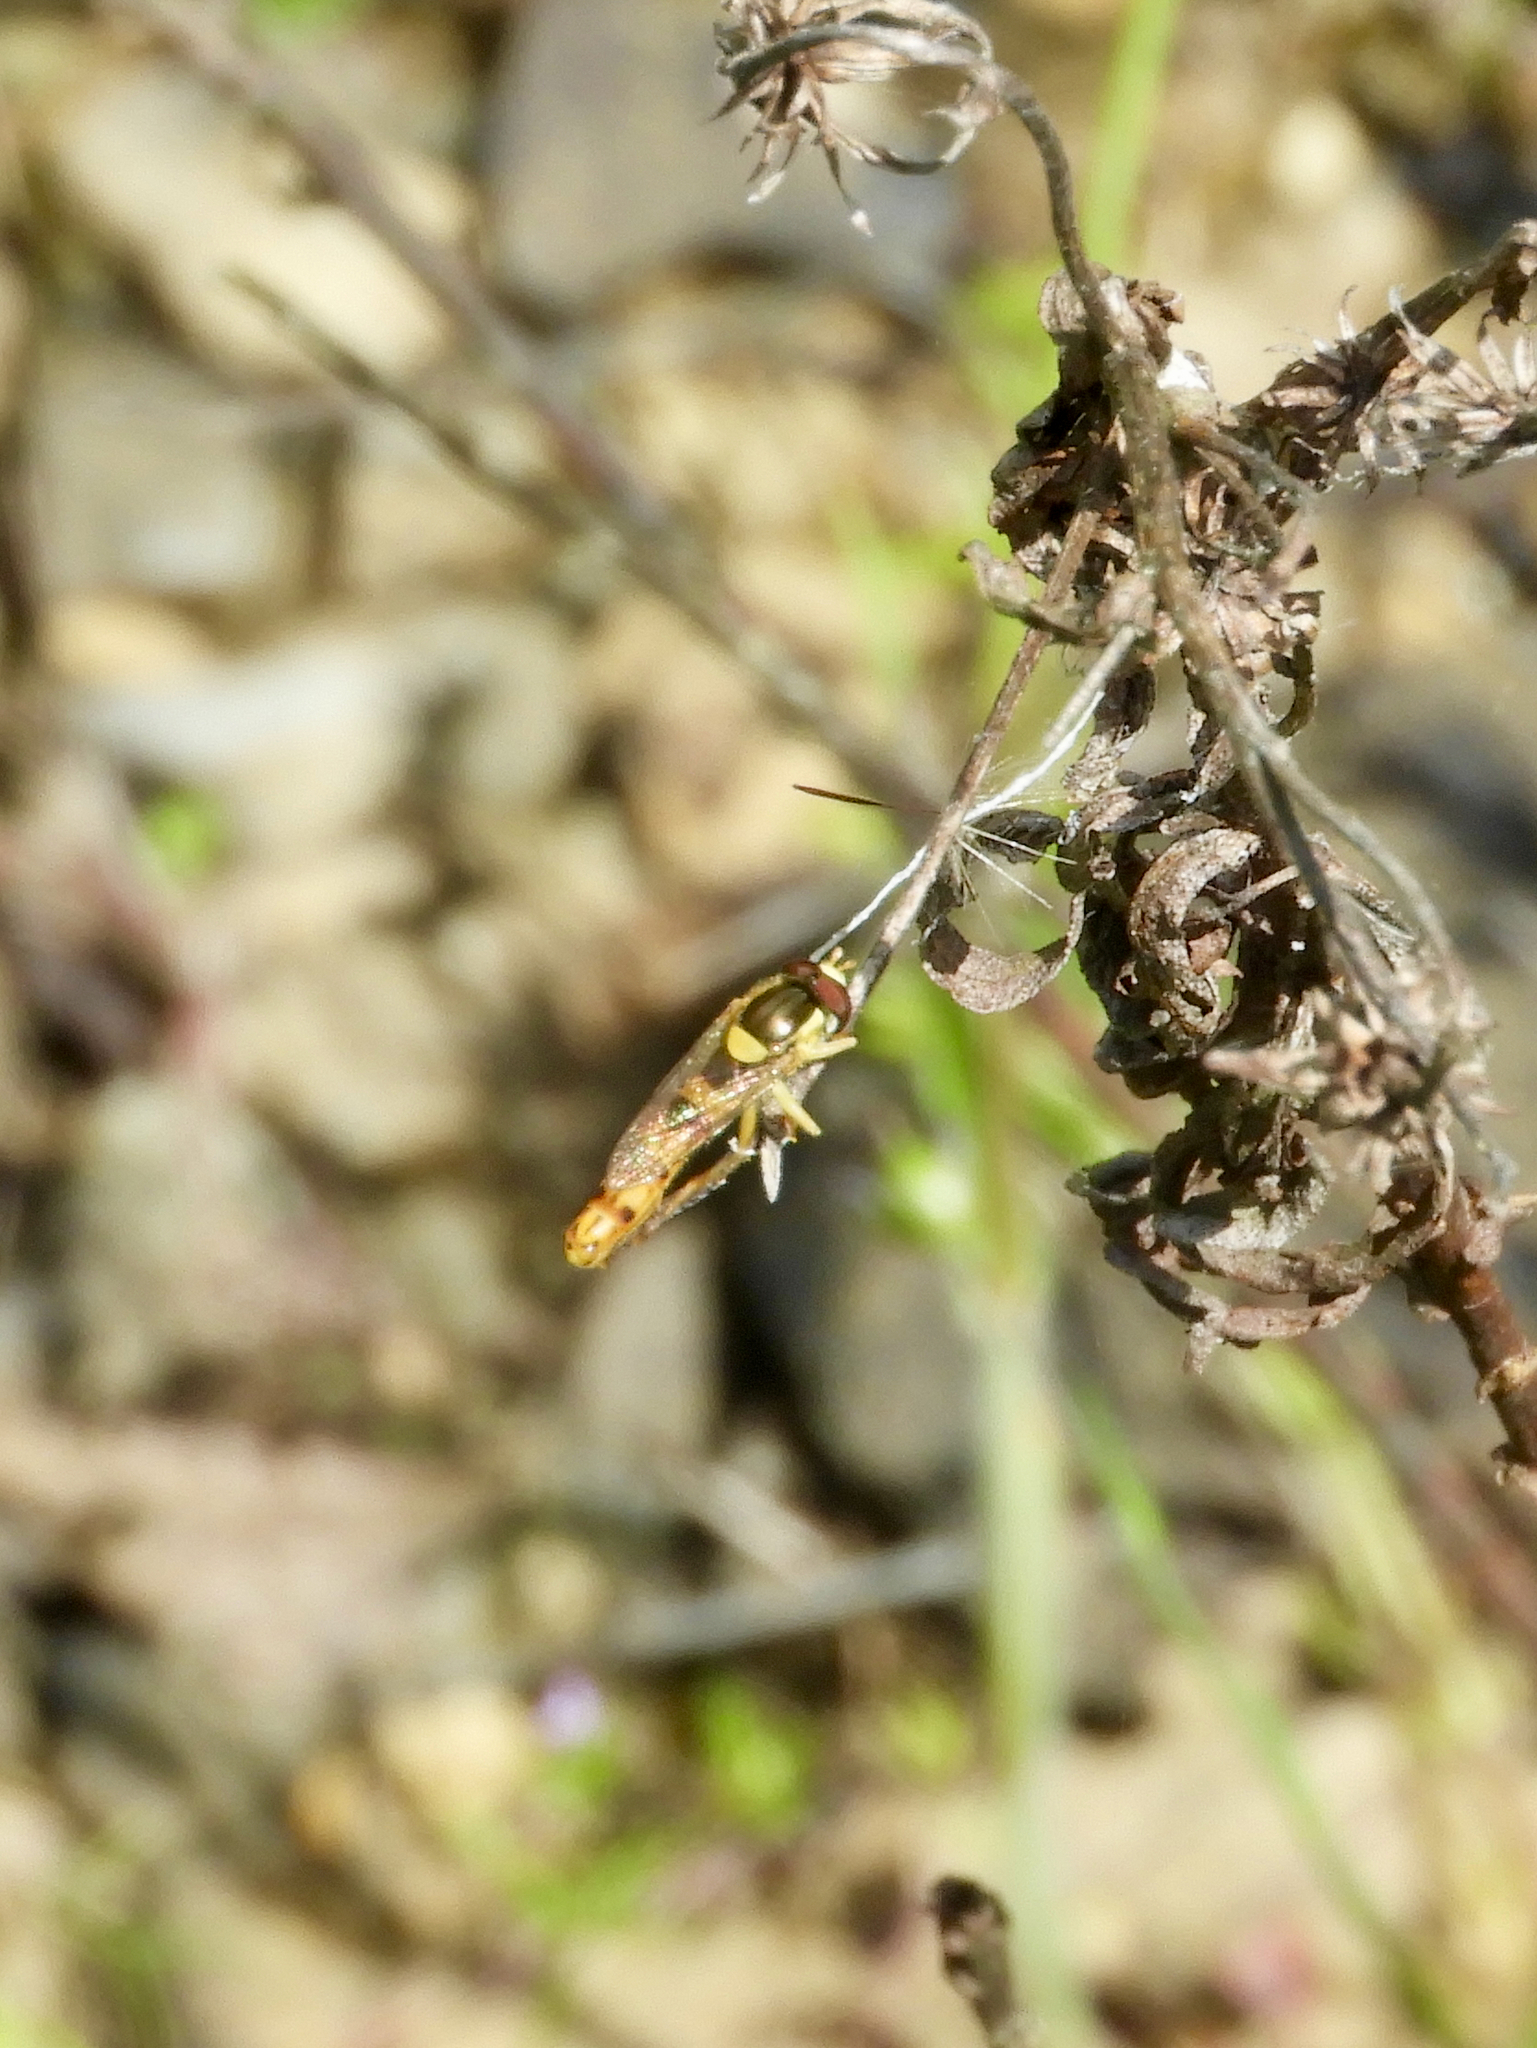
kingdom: Animalia
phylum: Arthropoda
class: Insecta
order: Diptera
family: Syrphidae
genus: Sphaerophoria
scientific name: Sphaerophoria scripta
